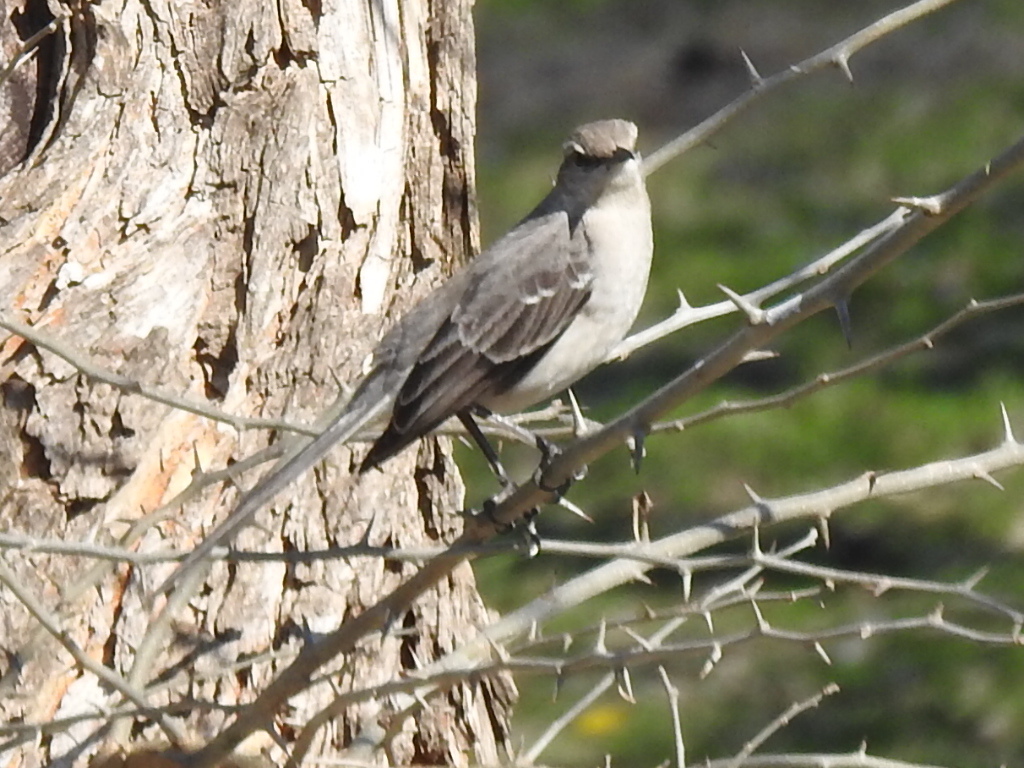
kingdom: Animalia
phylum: Chordata
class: Aves
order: Passeriformes
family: Mimidae
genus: Mimus
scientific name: Mimus polyglottos
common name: Northern mockingbird
